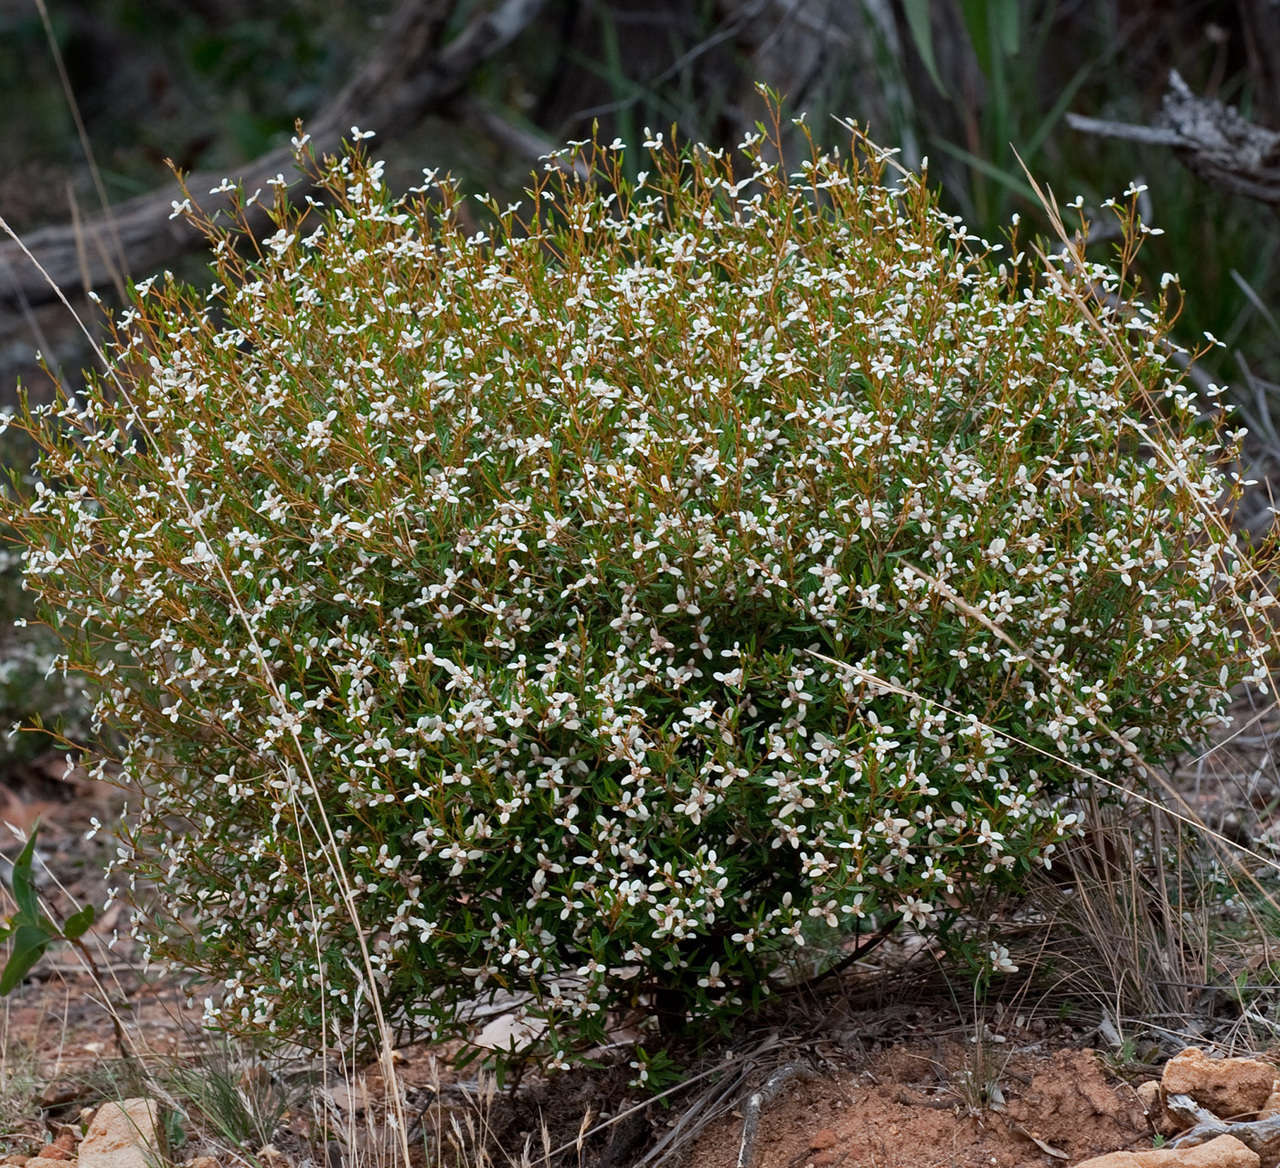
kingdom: Plantae
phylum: Tracheophyta
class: Magnoliopsida
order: Rosales
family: Rhamnaceae
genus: Spyridium
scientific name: Spyridium vexilliferum
